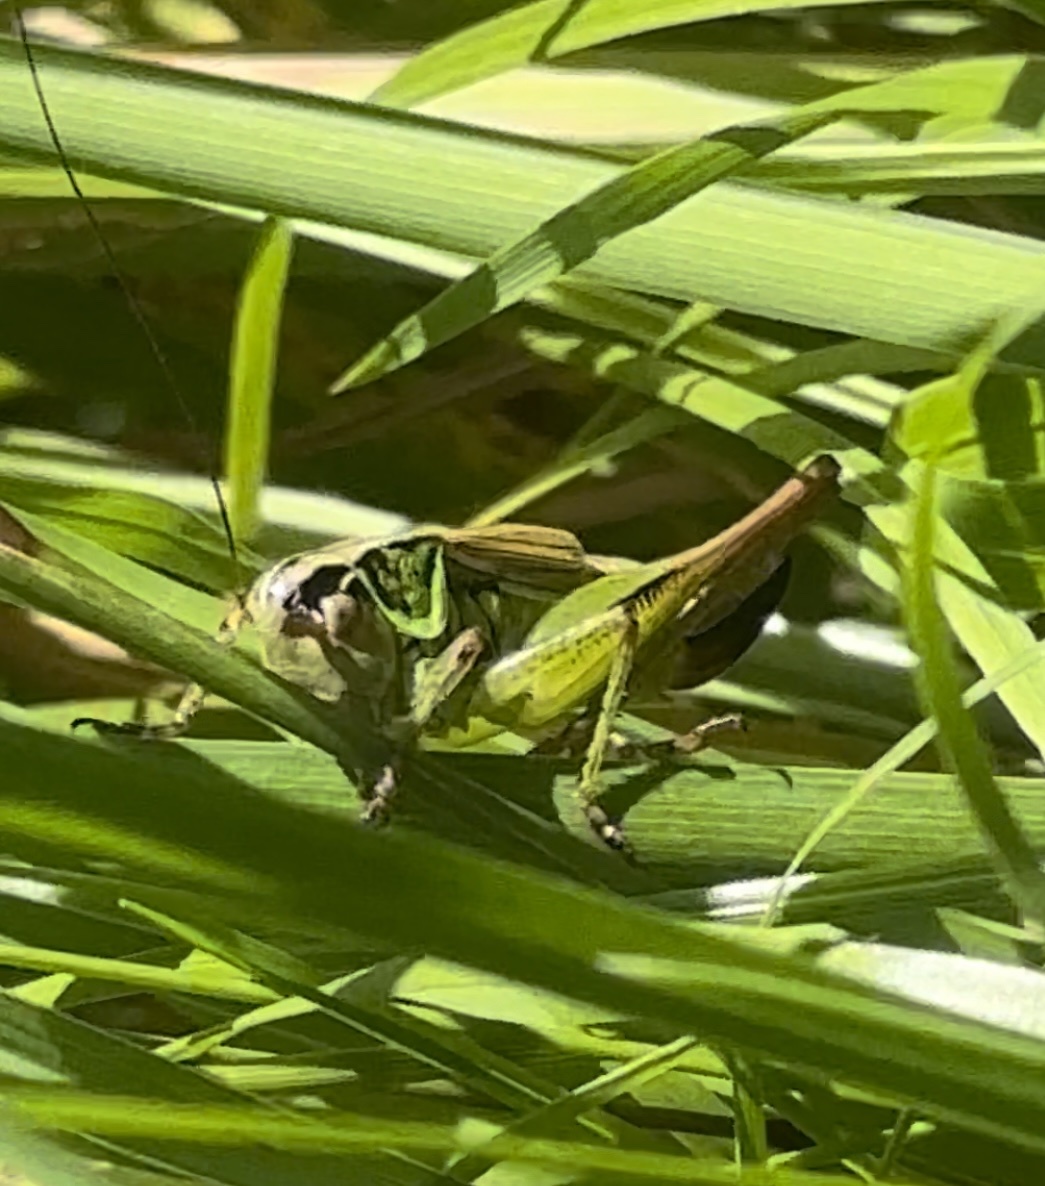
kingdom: Animalia
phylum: Arthropoda
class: Insecta
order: Orthoptera
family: Tettigoniidae
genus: Roeseliana
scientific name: Roeseliana roeselii
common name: Roesel's bush cricket
